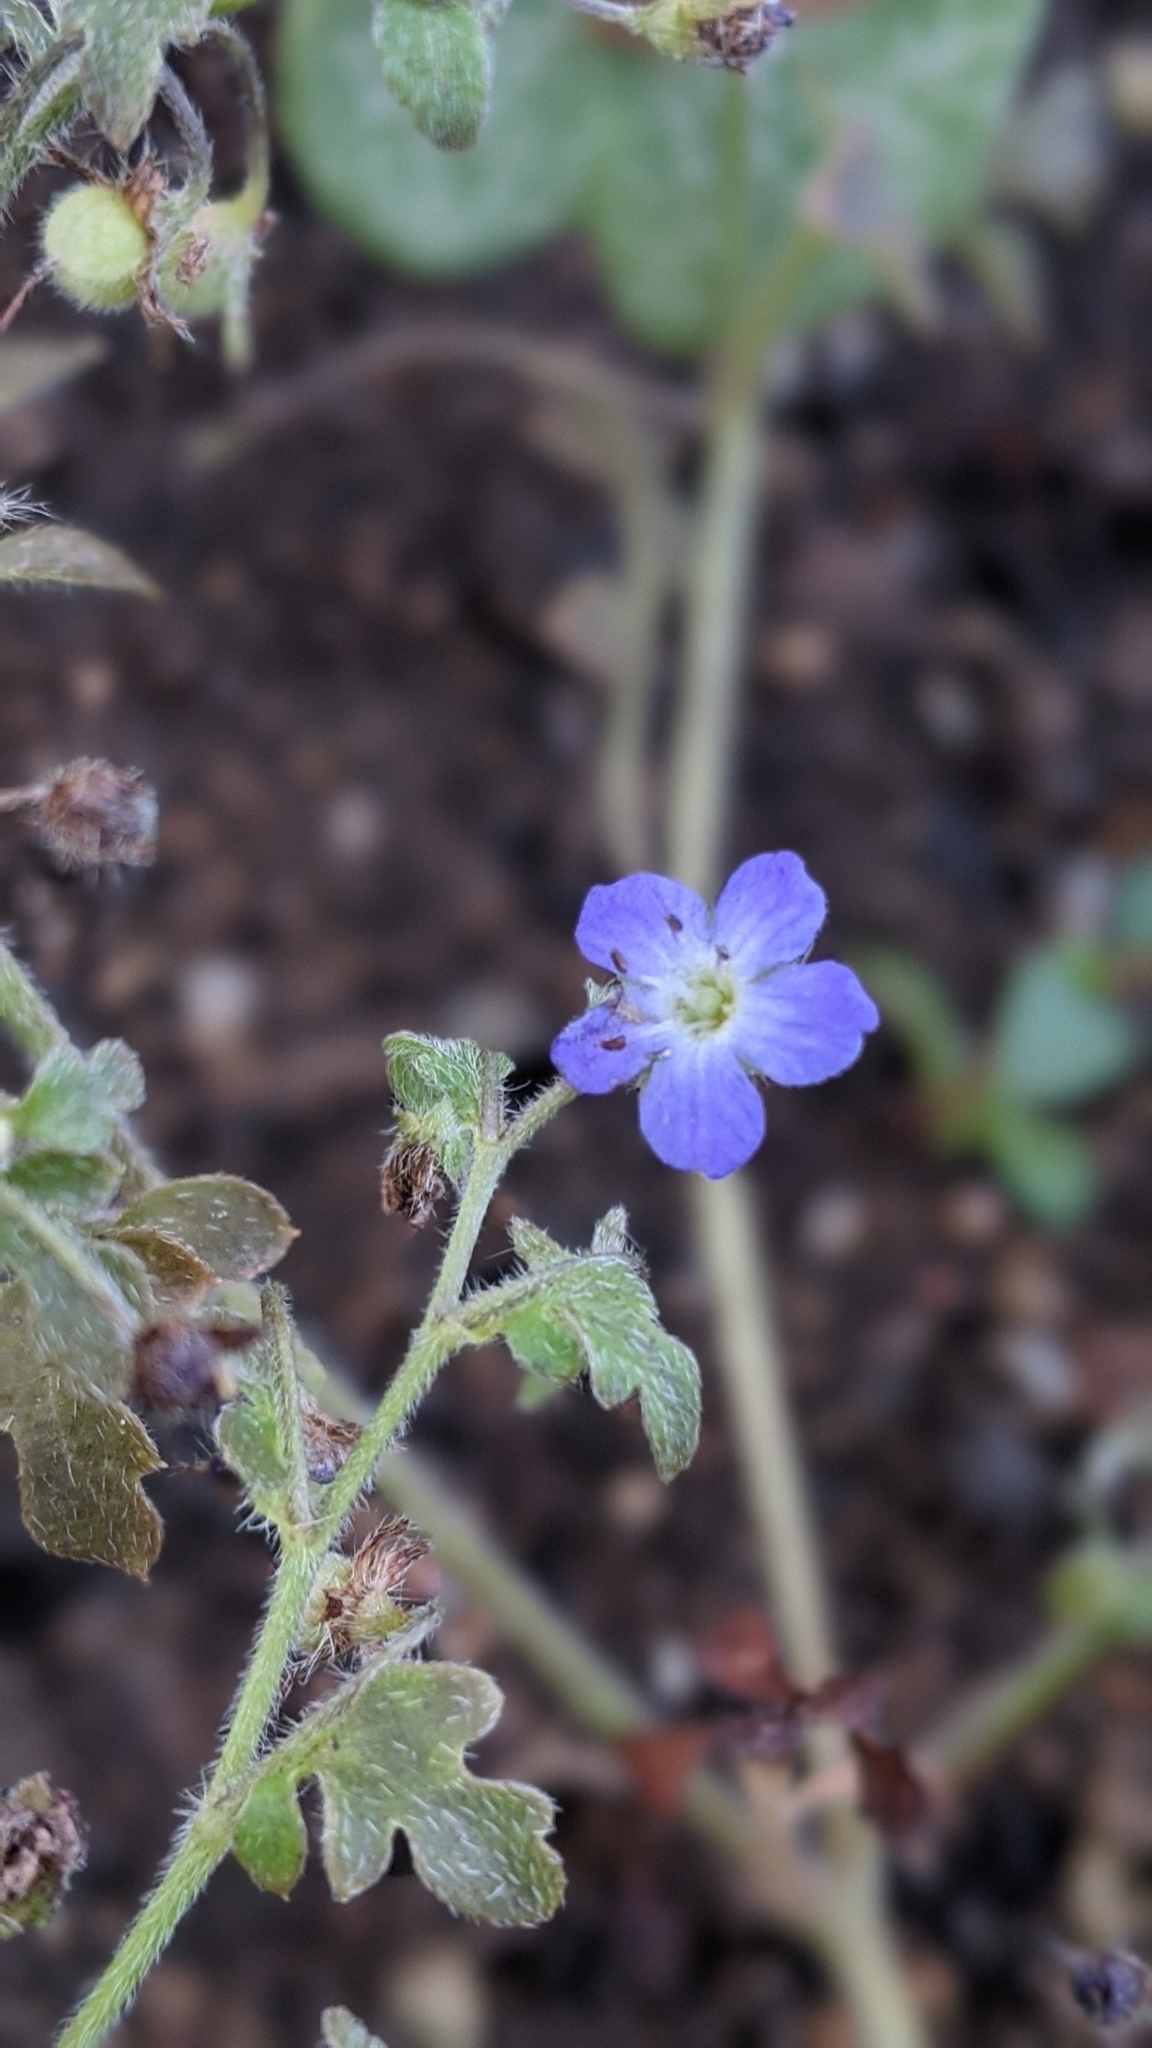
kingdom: Plantae
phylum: Tracheophyta
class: Magnoliopsida
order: Boraginales
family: Hydrophyllaceae
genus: Nemophila
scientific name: Nemophila pulchella
